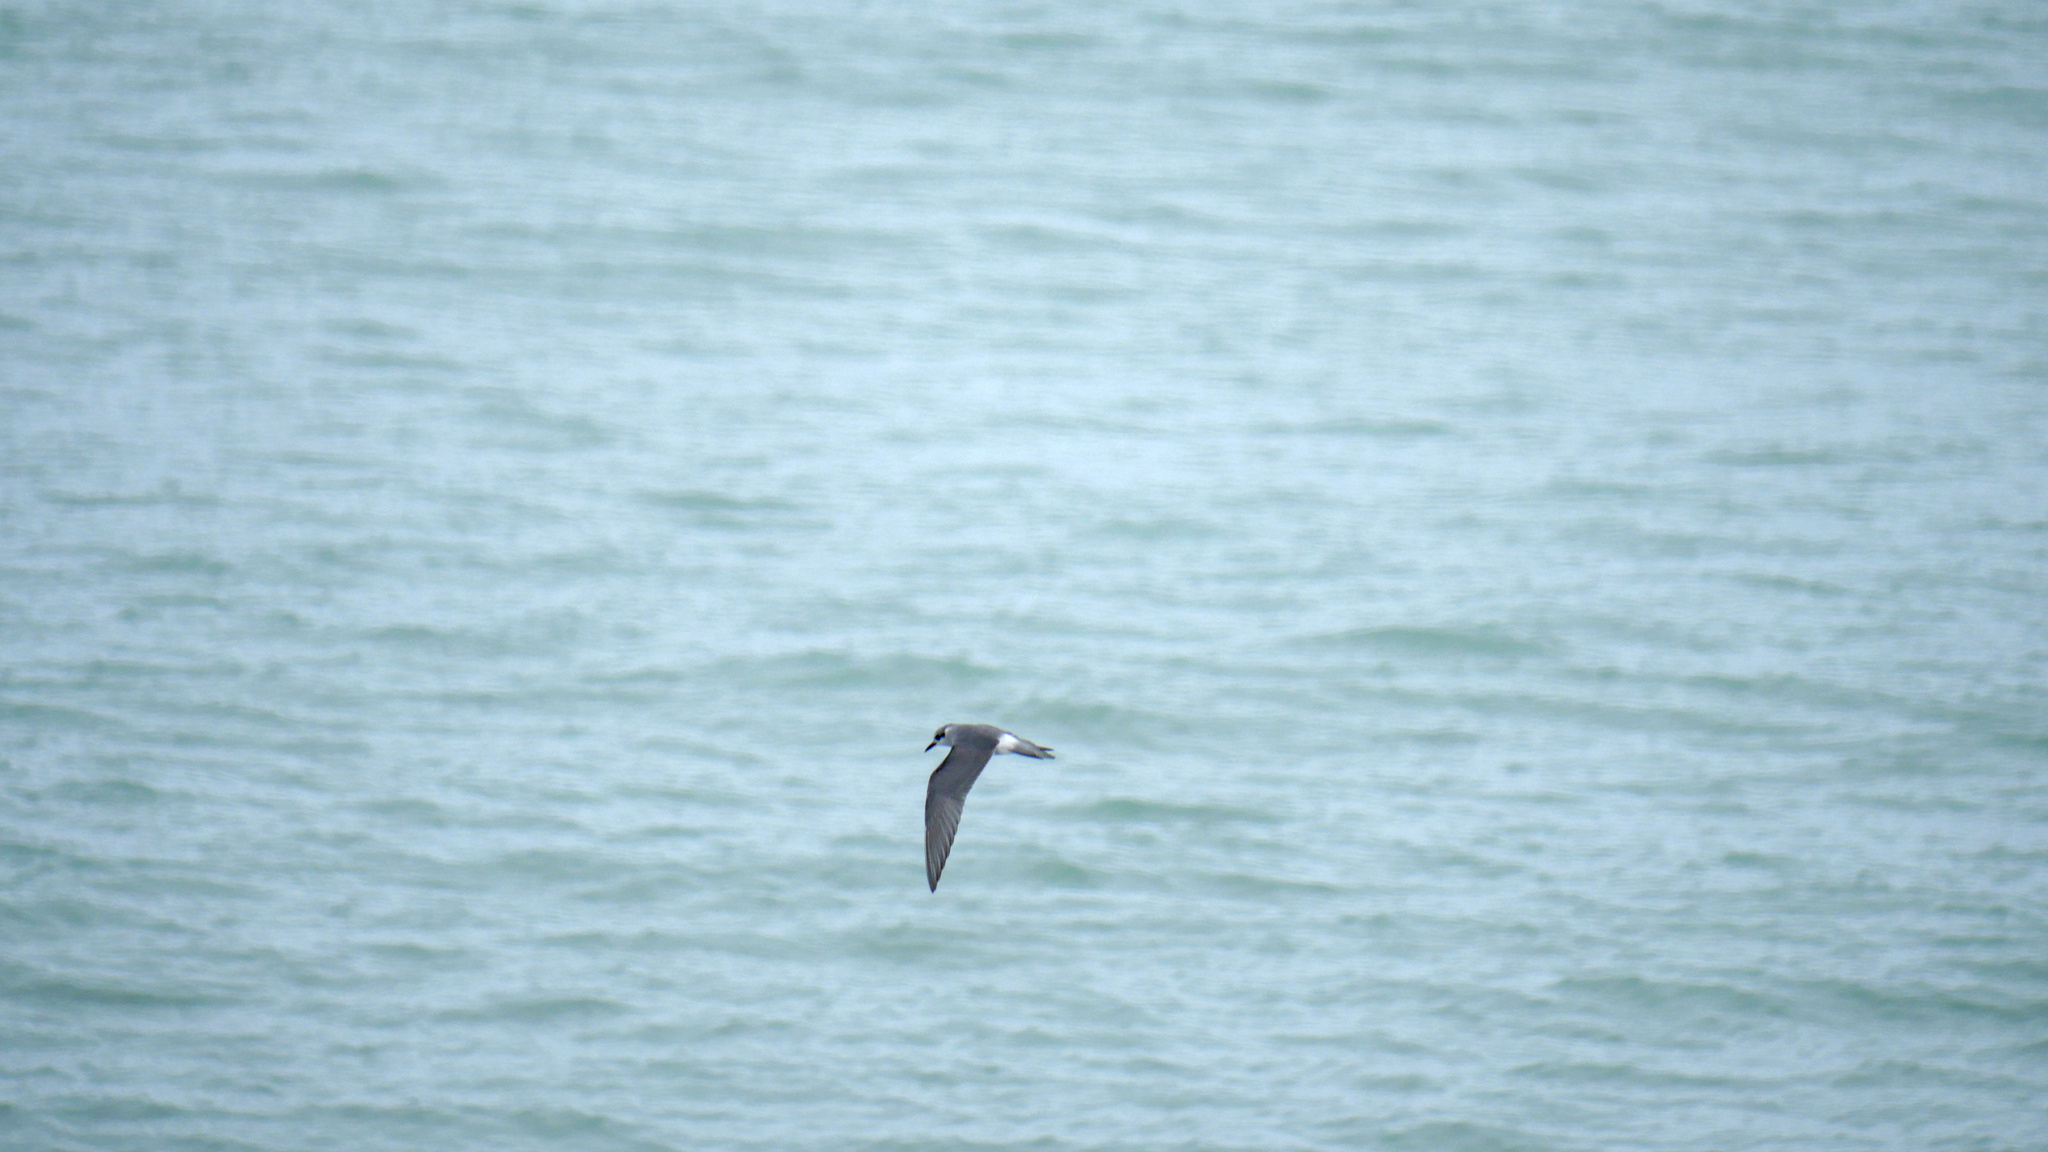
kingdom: Animalia
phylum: Chordata
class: Aves
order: Charadriiformes
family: Laridae
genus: Chlidonias
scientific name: Chlidonias albostriatus
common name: Black-fronted tern
